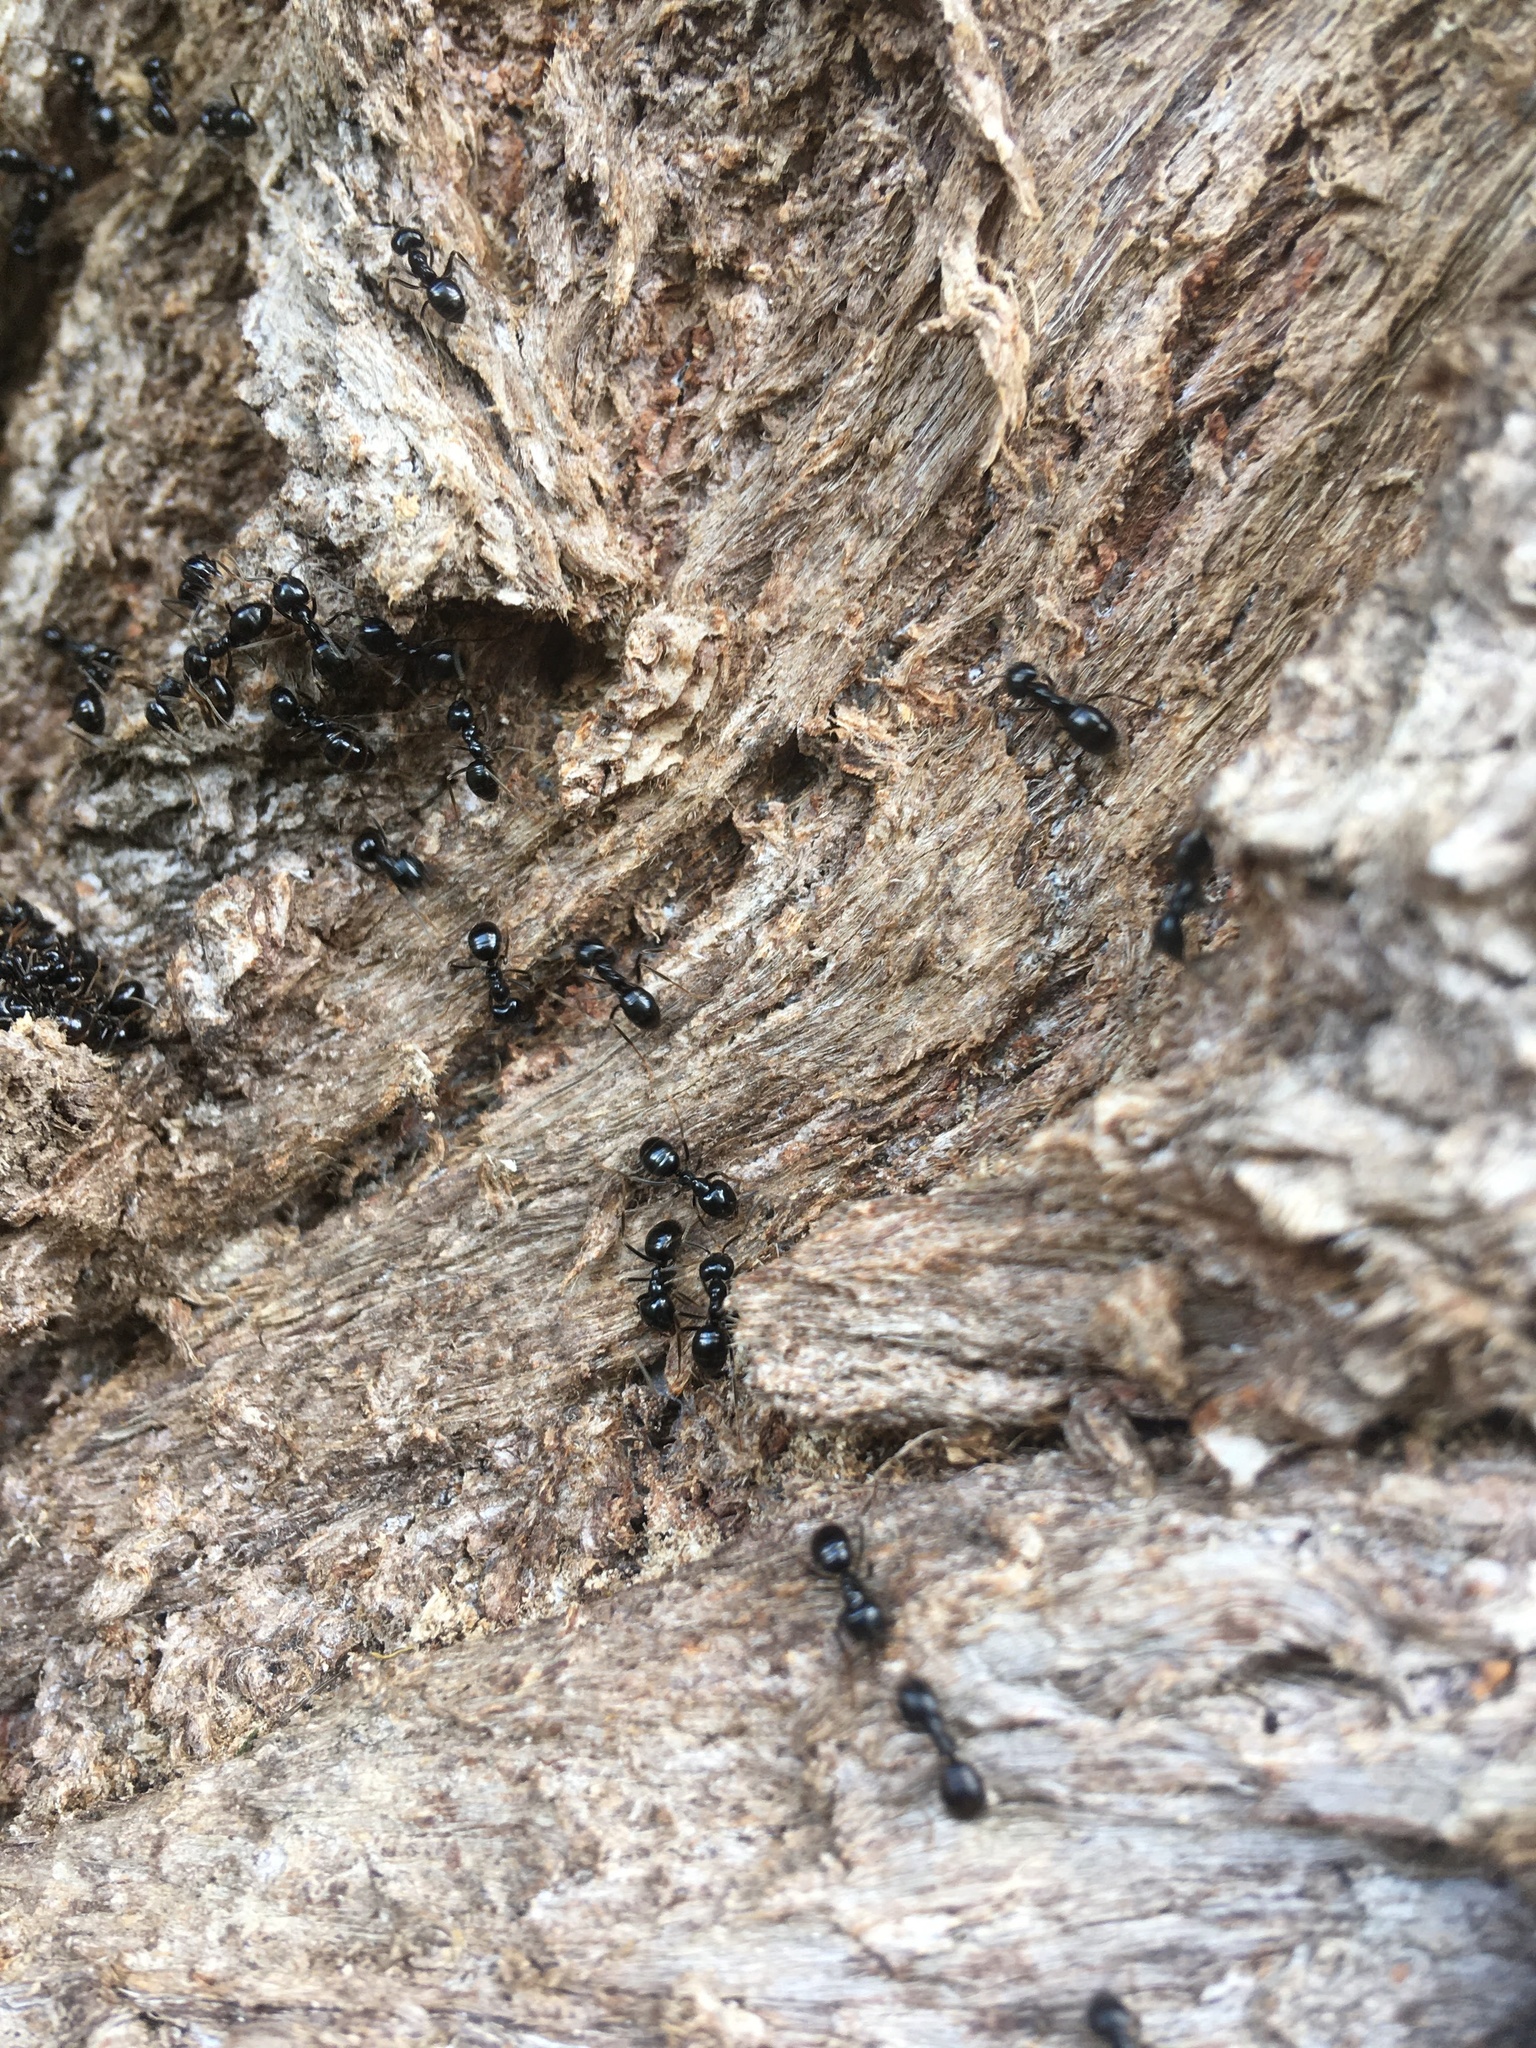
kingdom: Animalia
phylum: Arthropoda
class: Insecta
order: Hymenoptera
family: Formicidae
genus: Lasius
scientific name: Lasius fuliginosus
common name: Jet ant
